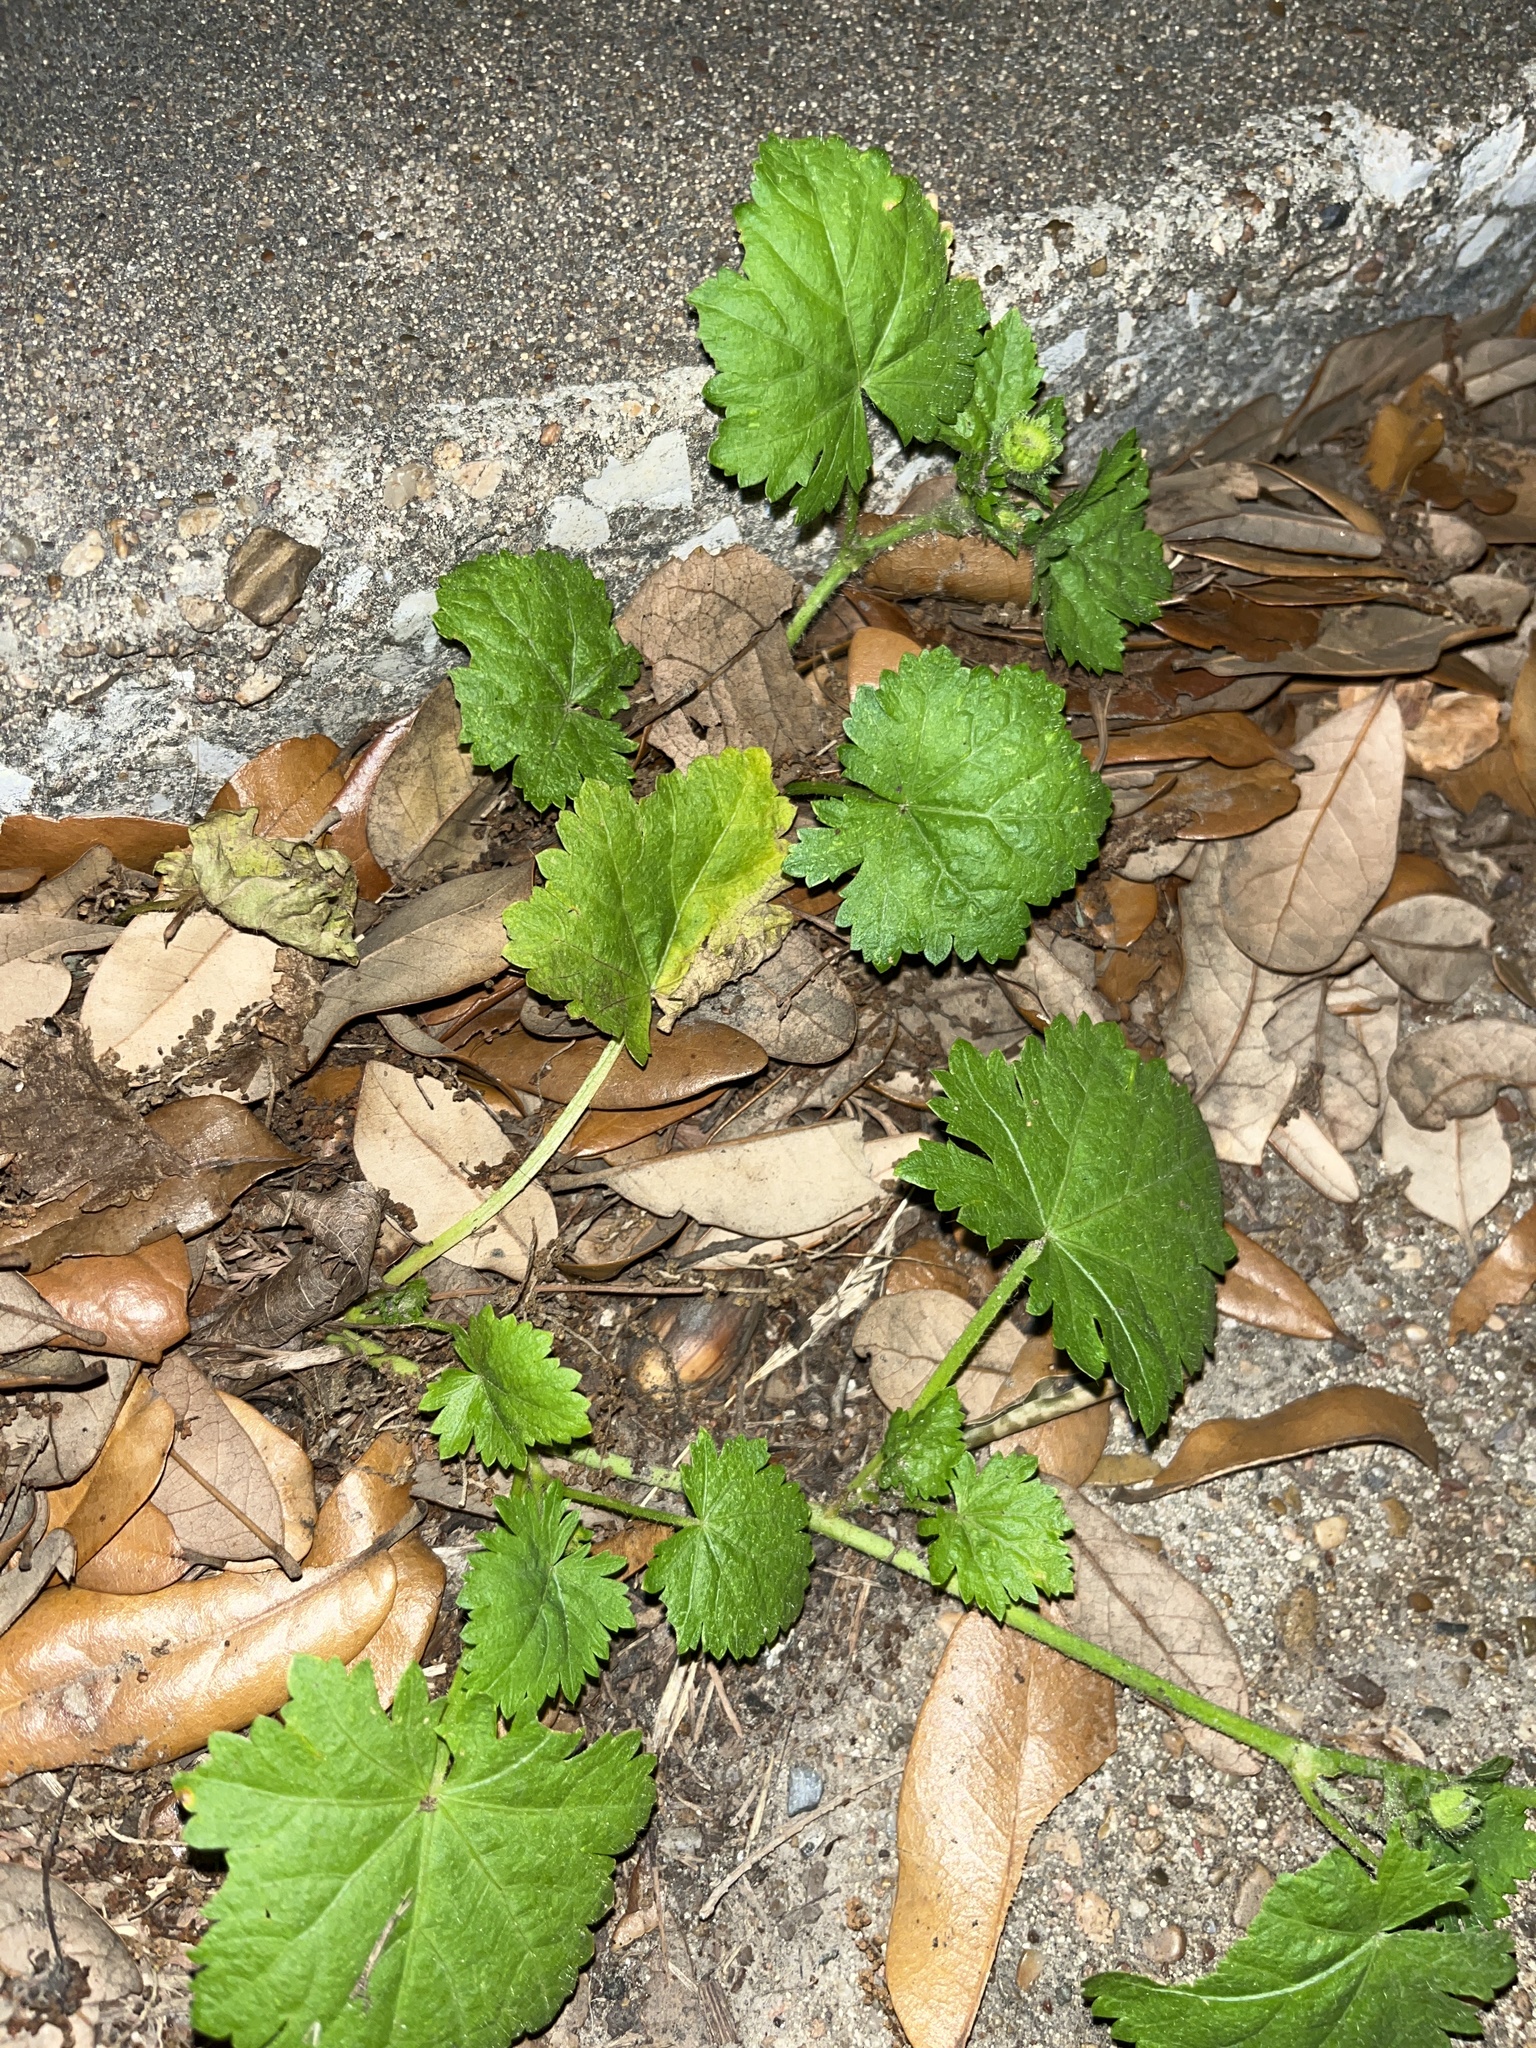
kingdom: Plantae
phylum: Tracheophyta
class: Magnoliopsida
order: Malvales
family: Malvaceae
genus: Modiola
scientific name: Modiola caroliniana
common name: Carolina bristlemallow
